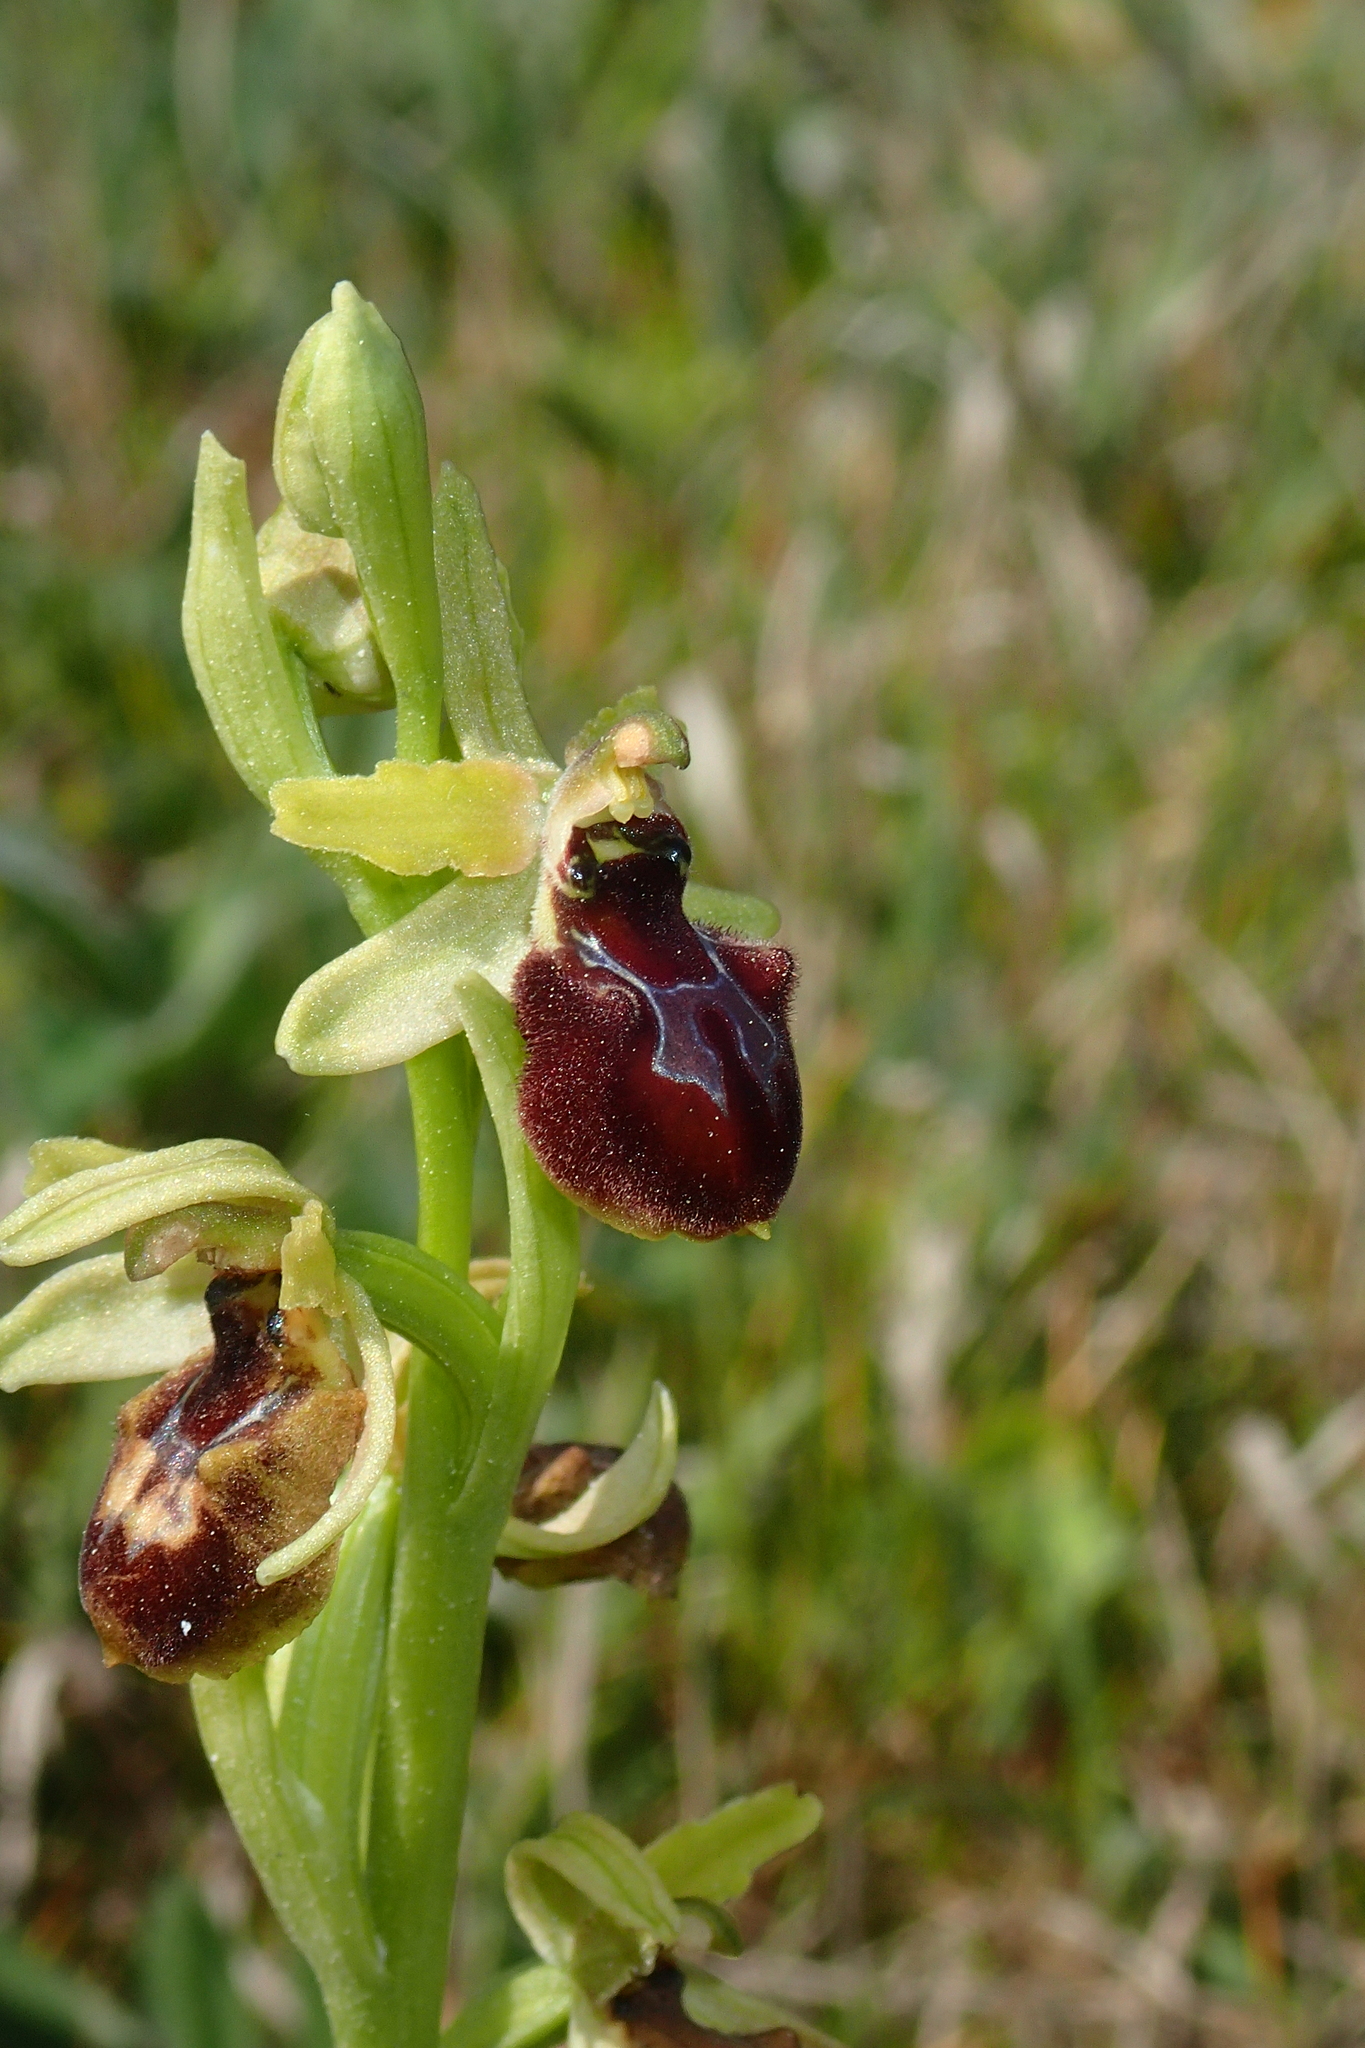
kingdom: Plantae
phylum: Tracheophyta
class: Liliopsida
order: Asparagales
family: Orchidaceae
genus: Ophrys
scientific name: Ophrys arachnitiformis
